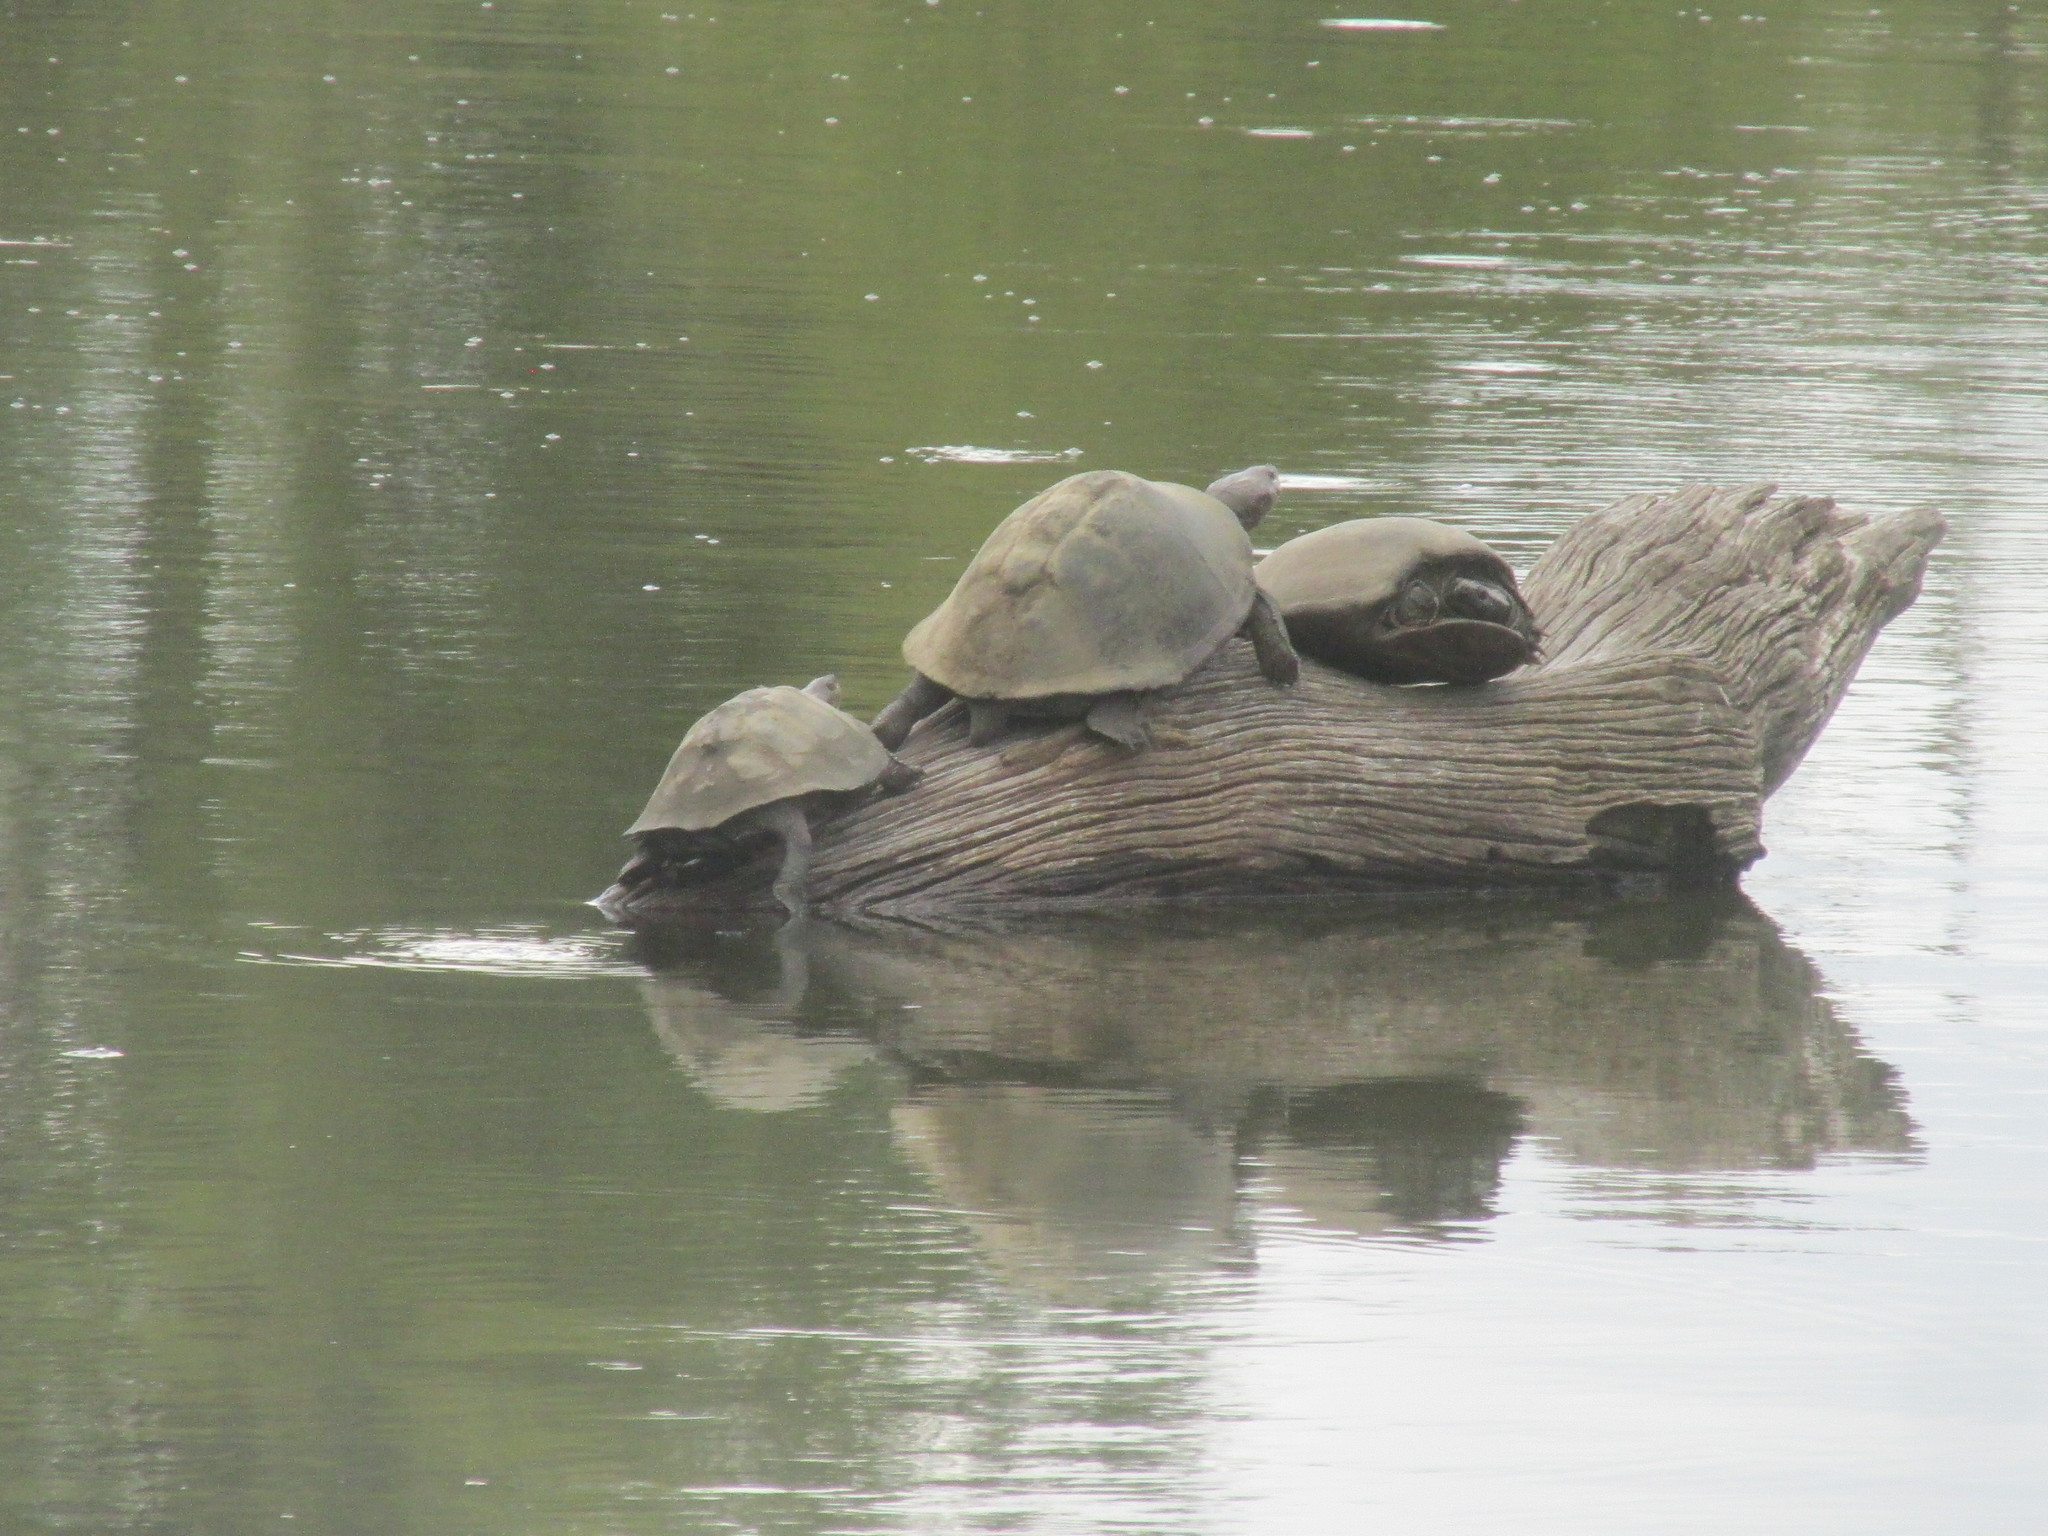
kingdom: Animalia
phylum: Chordata
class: Testudines
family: Pelomedusidae
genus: Pelusios
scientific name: Pelusios sinuatus
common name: Serrated hinged terrapin
